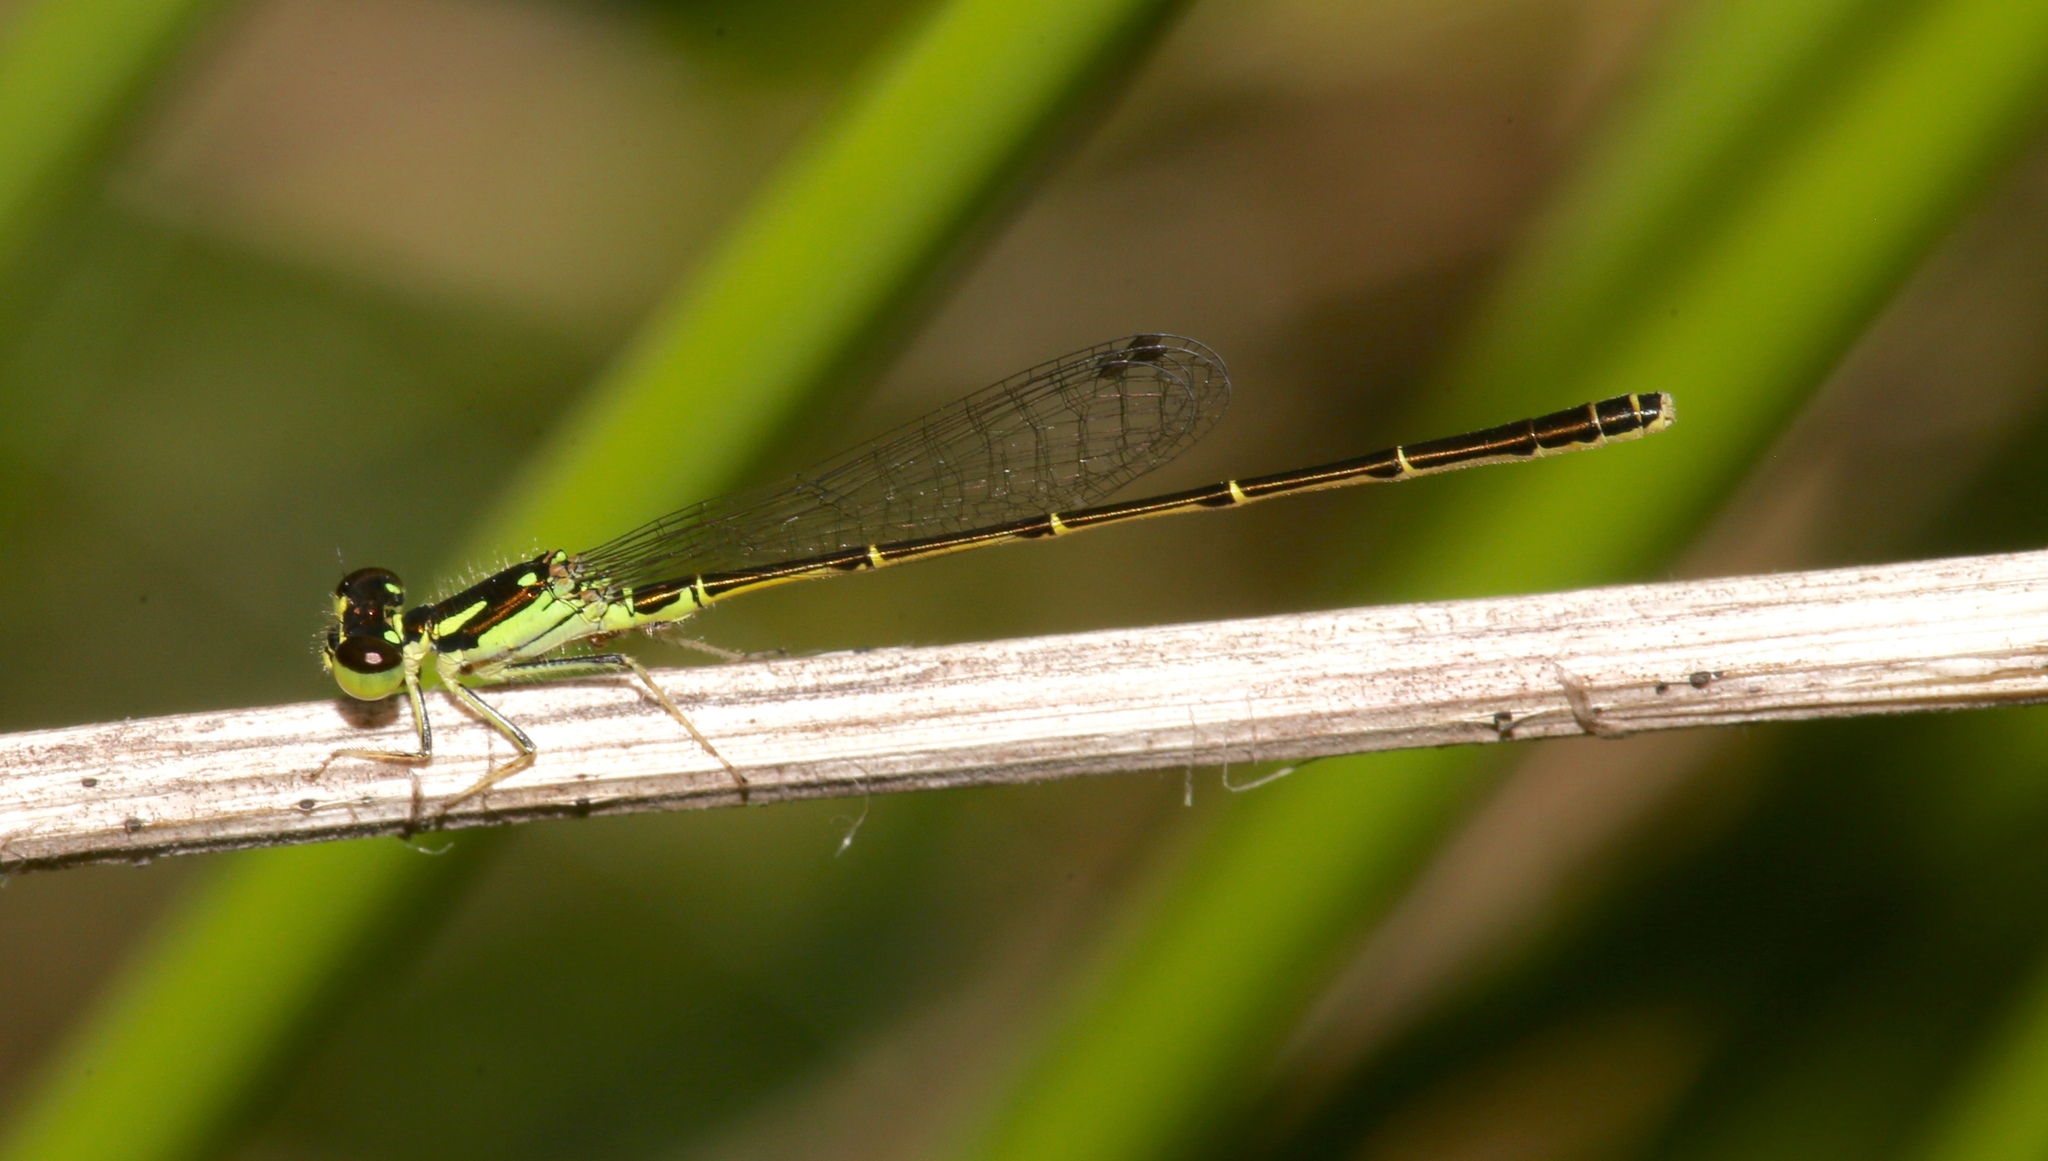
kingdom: Animalia
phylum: Arthropoda
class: Insecta
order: Odonata
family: Coenagrionidae
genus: Ischnura
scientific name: Ischnura posita
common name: Fragile forktail
